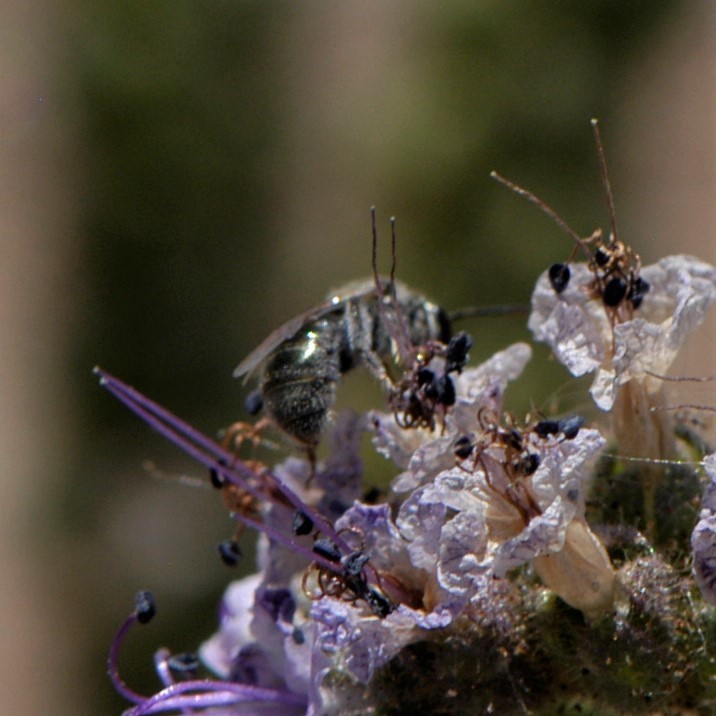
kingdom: Animalia
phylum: Arthropoda
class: Insecta
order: Hymenoptera
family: Halictidae
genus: Dialictus
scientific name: Dialictus
